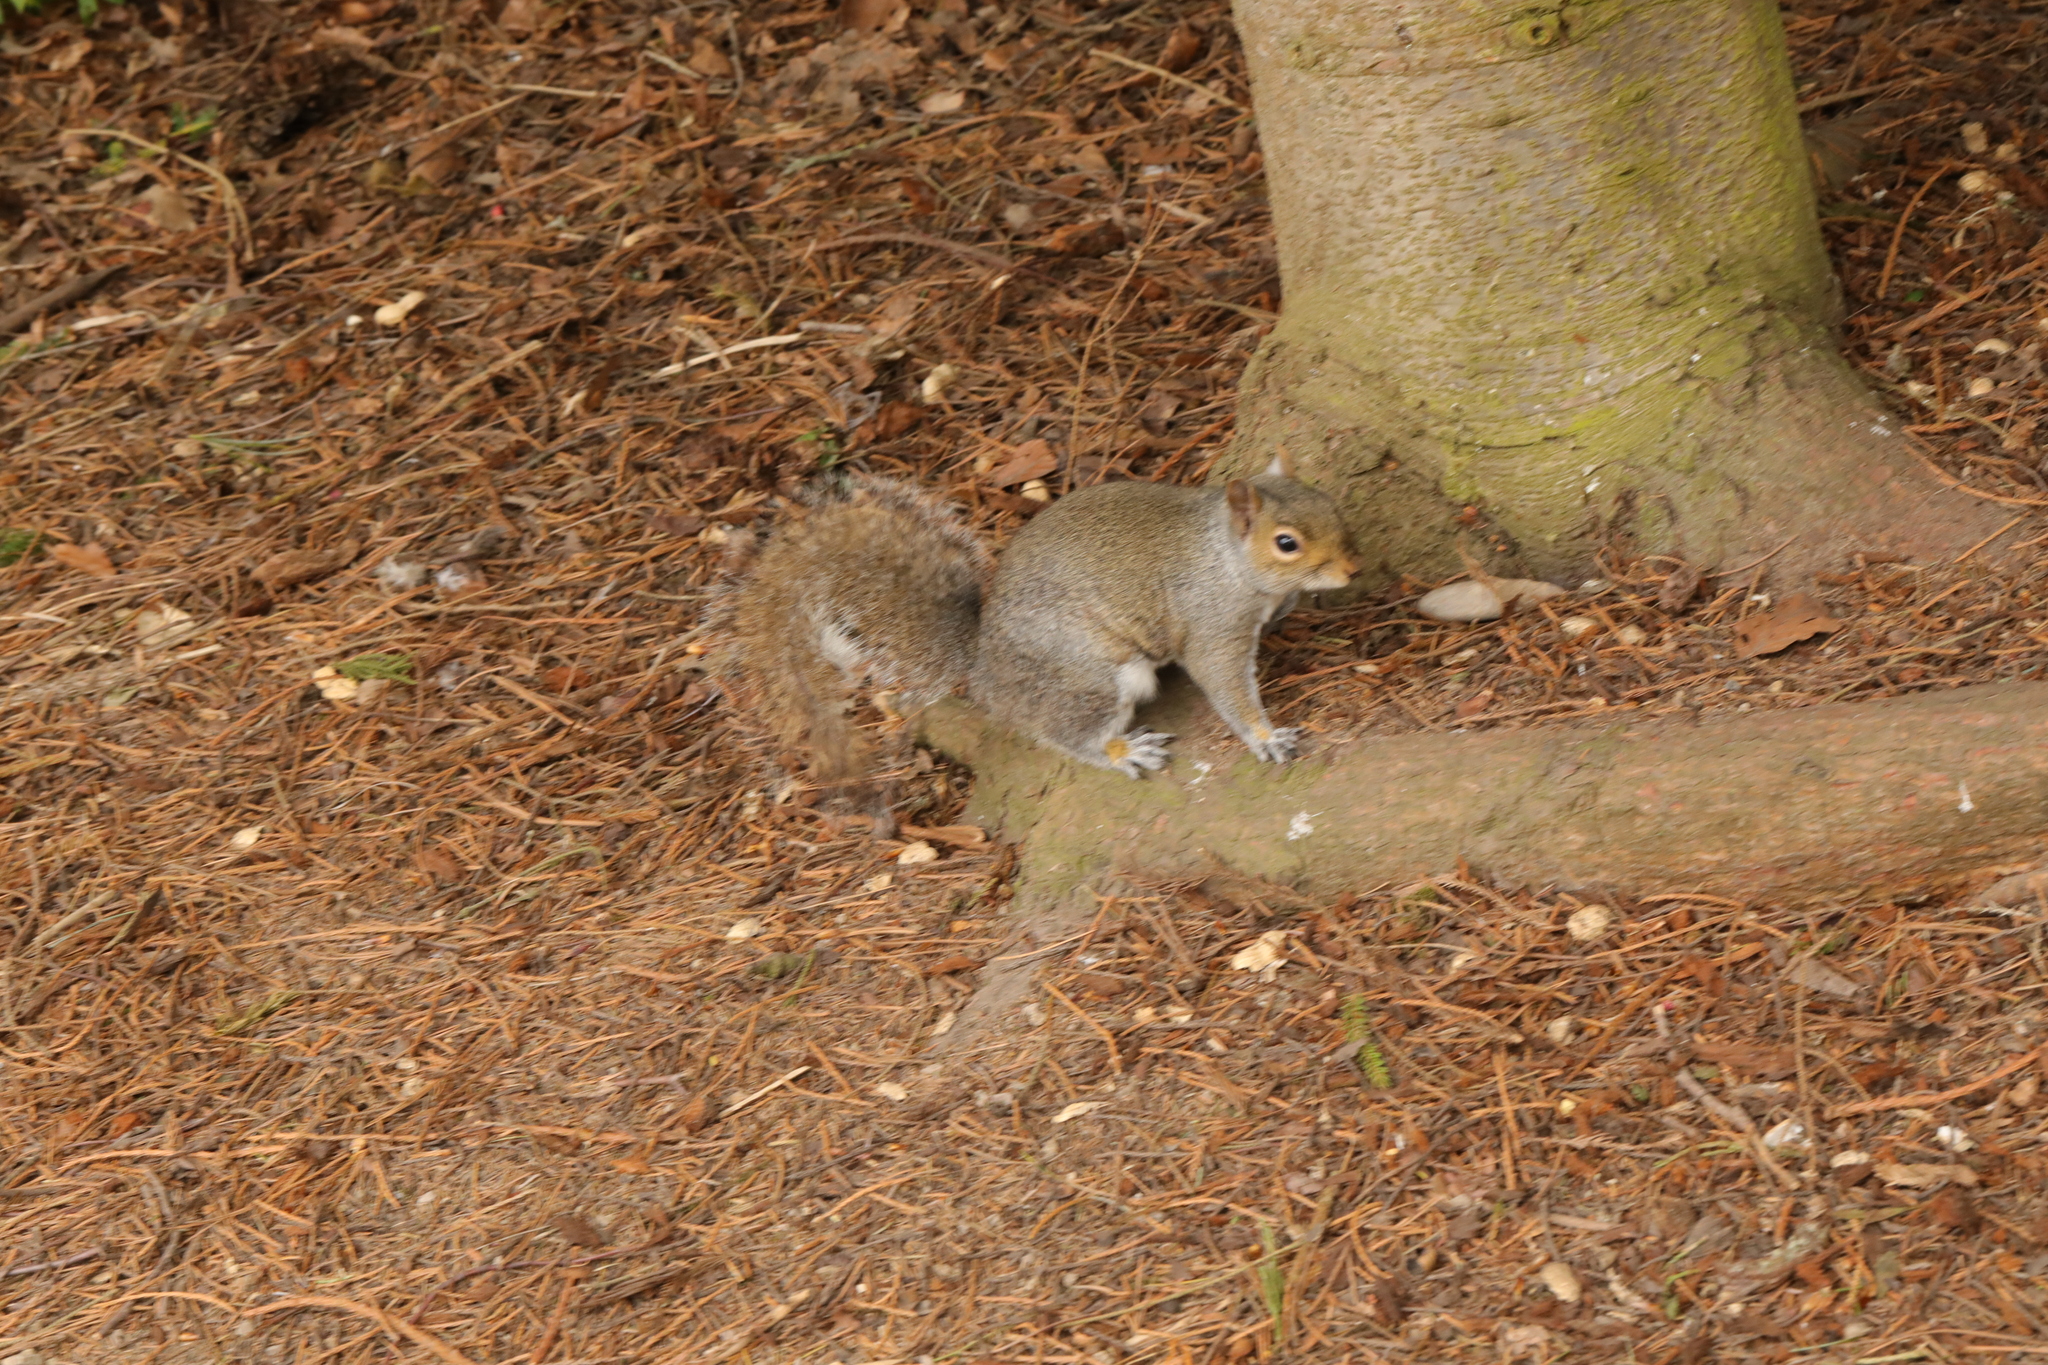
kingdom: Animalia
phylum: Chordata
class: Mammalia
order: Rodentia
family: Sciuridae
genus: Sciurus
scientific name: Sciurus carolinensis
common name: Eastern gray squirrel
